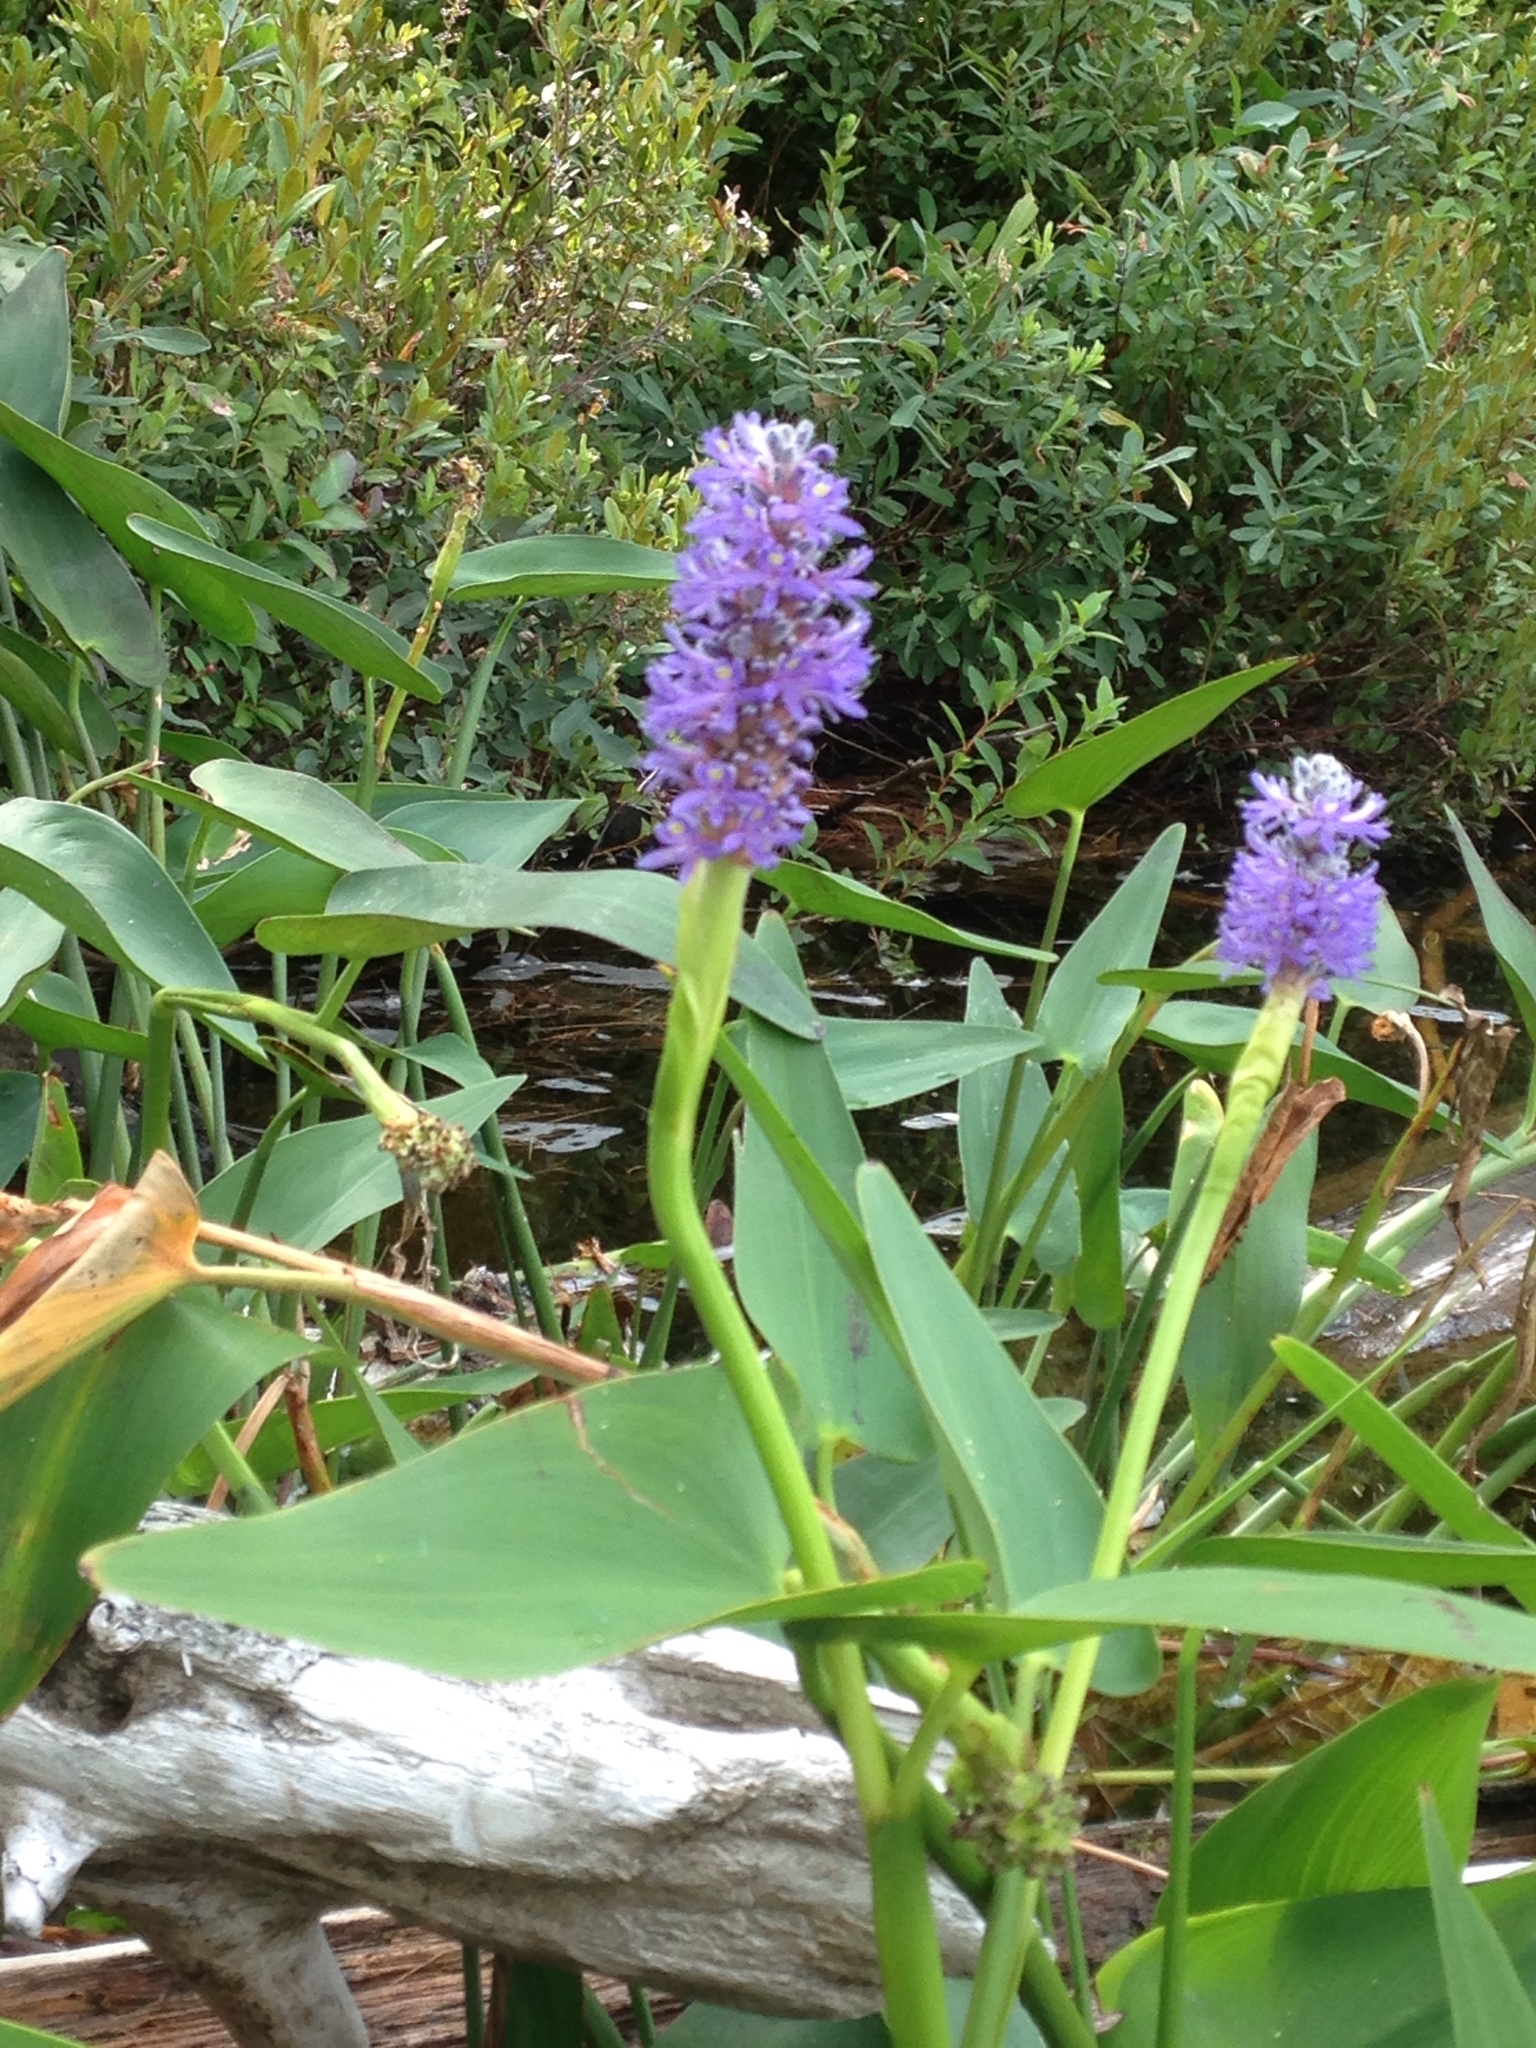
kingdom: Plantae
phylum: Tracheophyta
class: Liliopsida
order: Commelinales
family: Pontederiaceae
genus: Pontederia
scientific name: Pontederia cordata
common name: Pickerelweed
